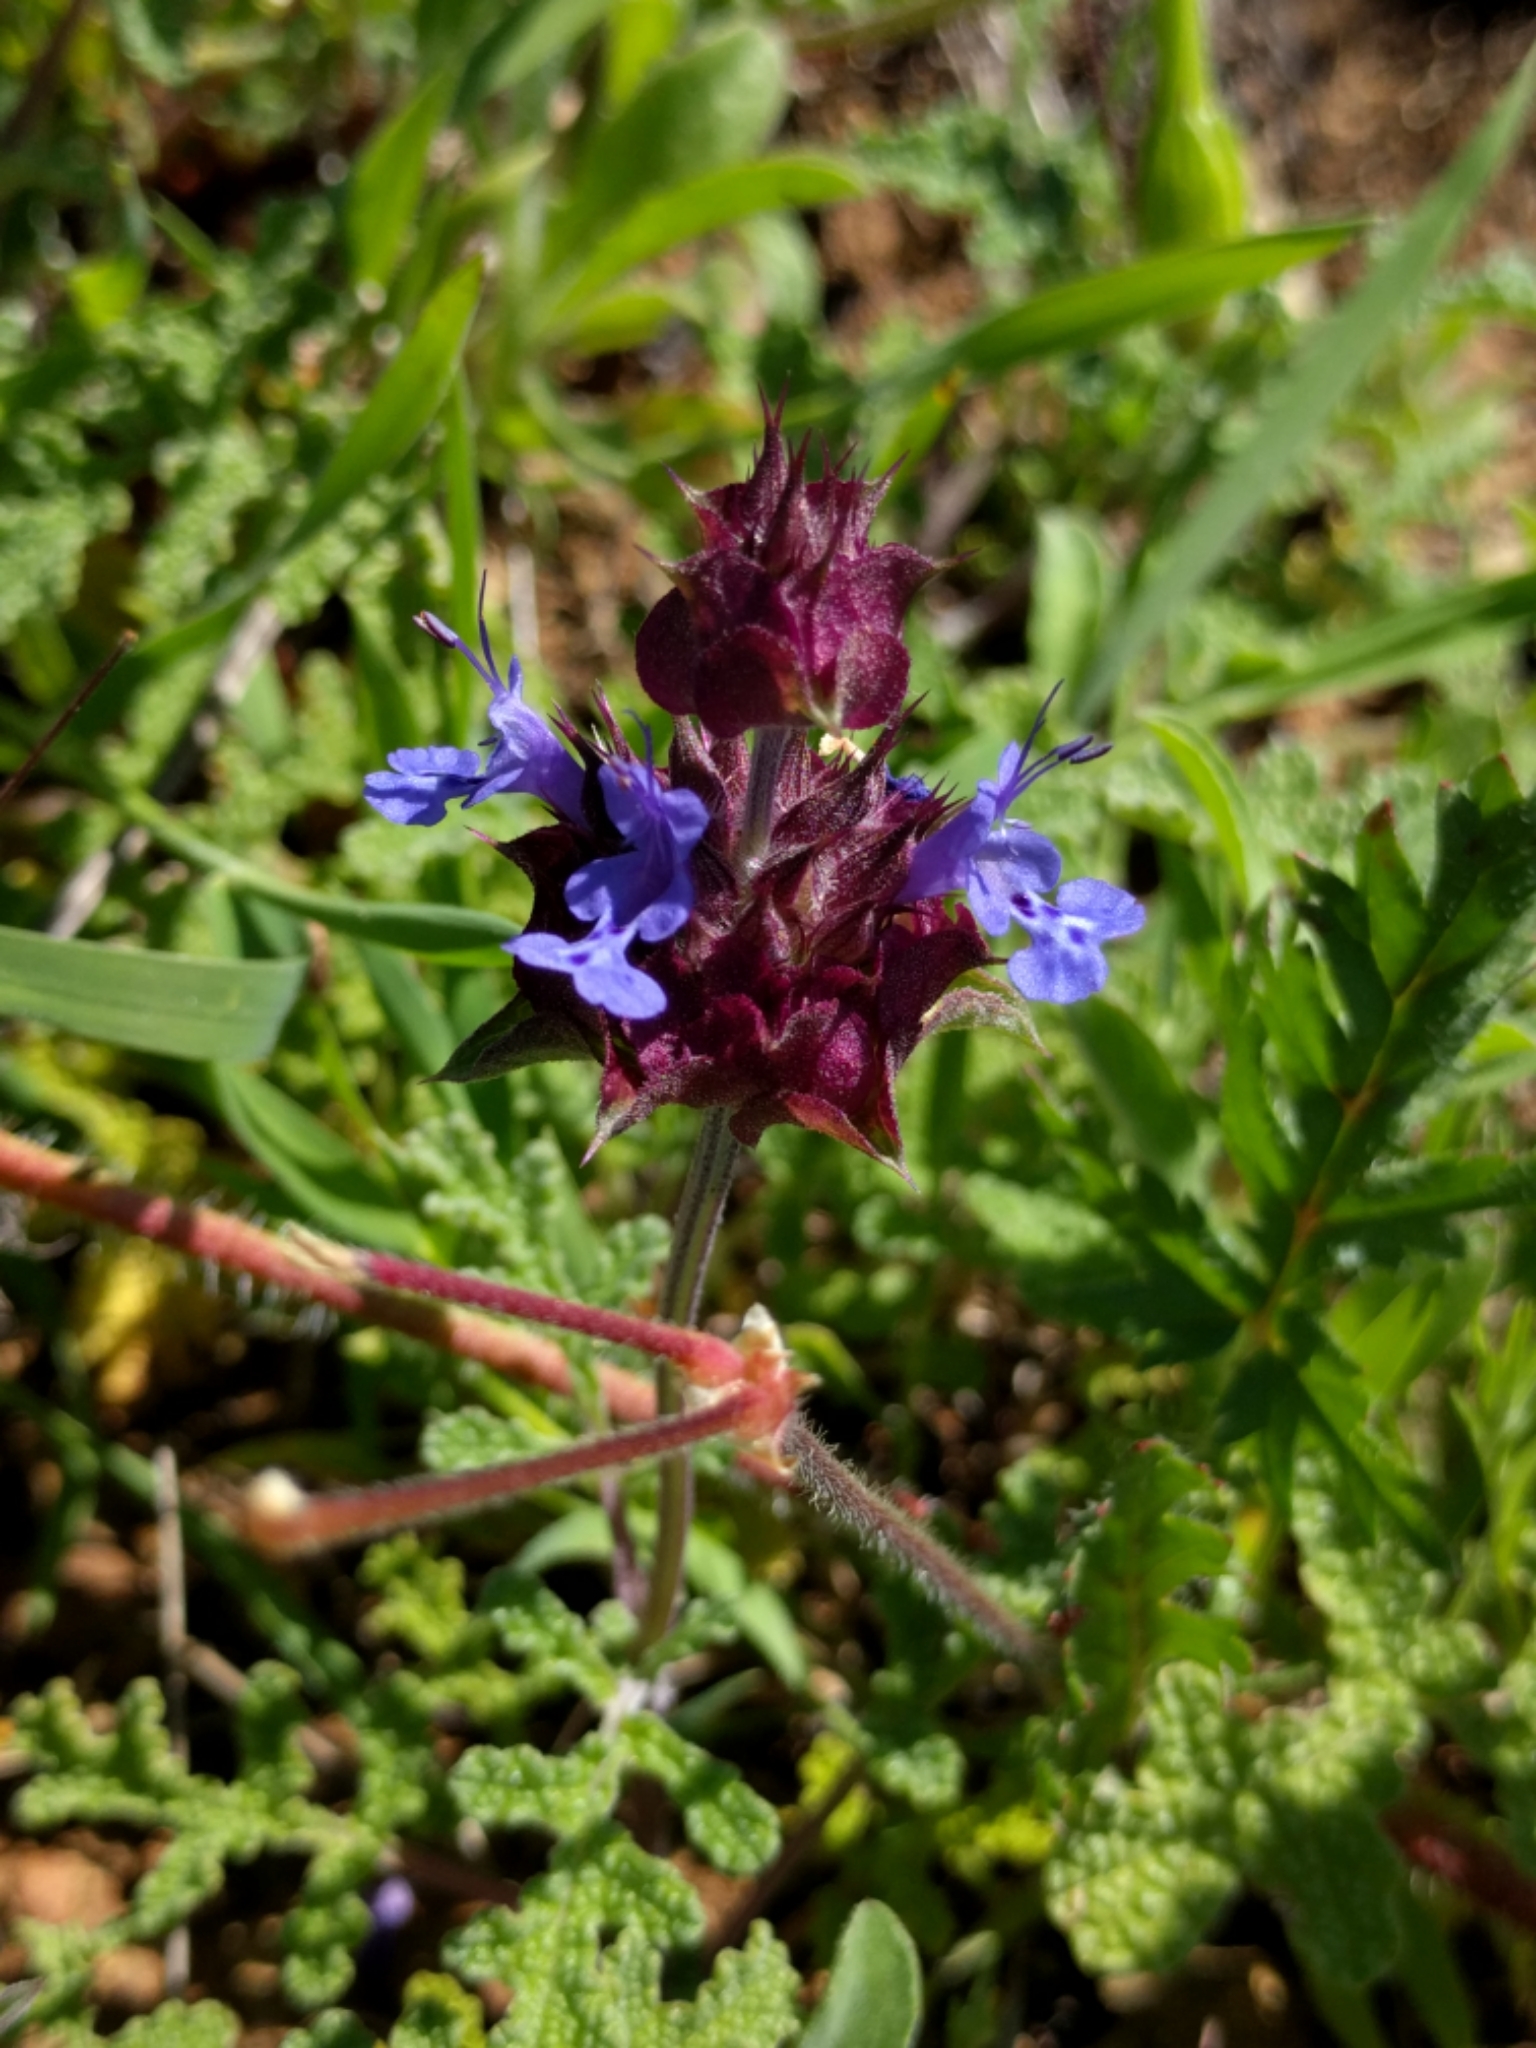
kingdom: Plantae
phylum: Tracheophyta
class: Magnoliopsida
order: Lamiales
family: Lamiaceae
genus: Salvia
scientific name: Salvia columbariae
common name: Chia
